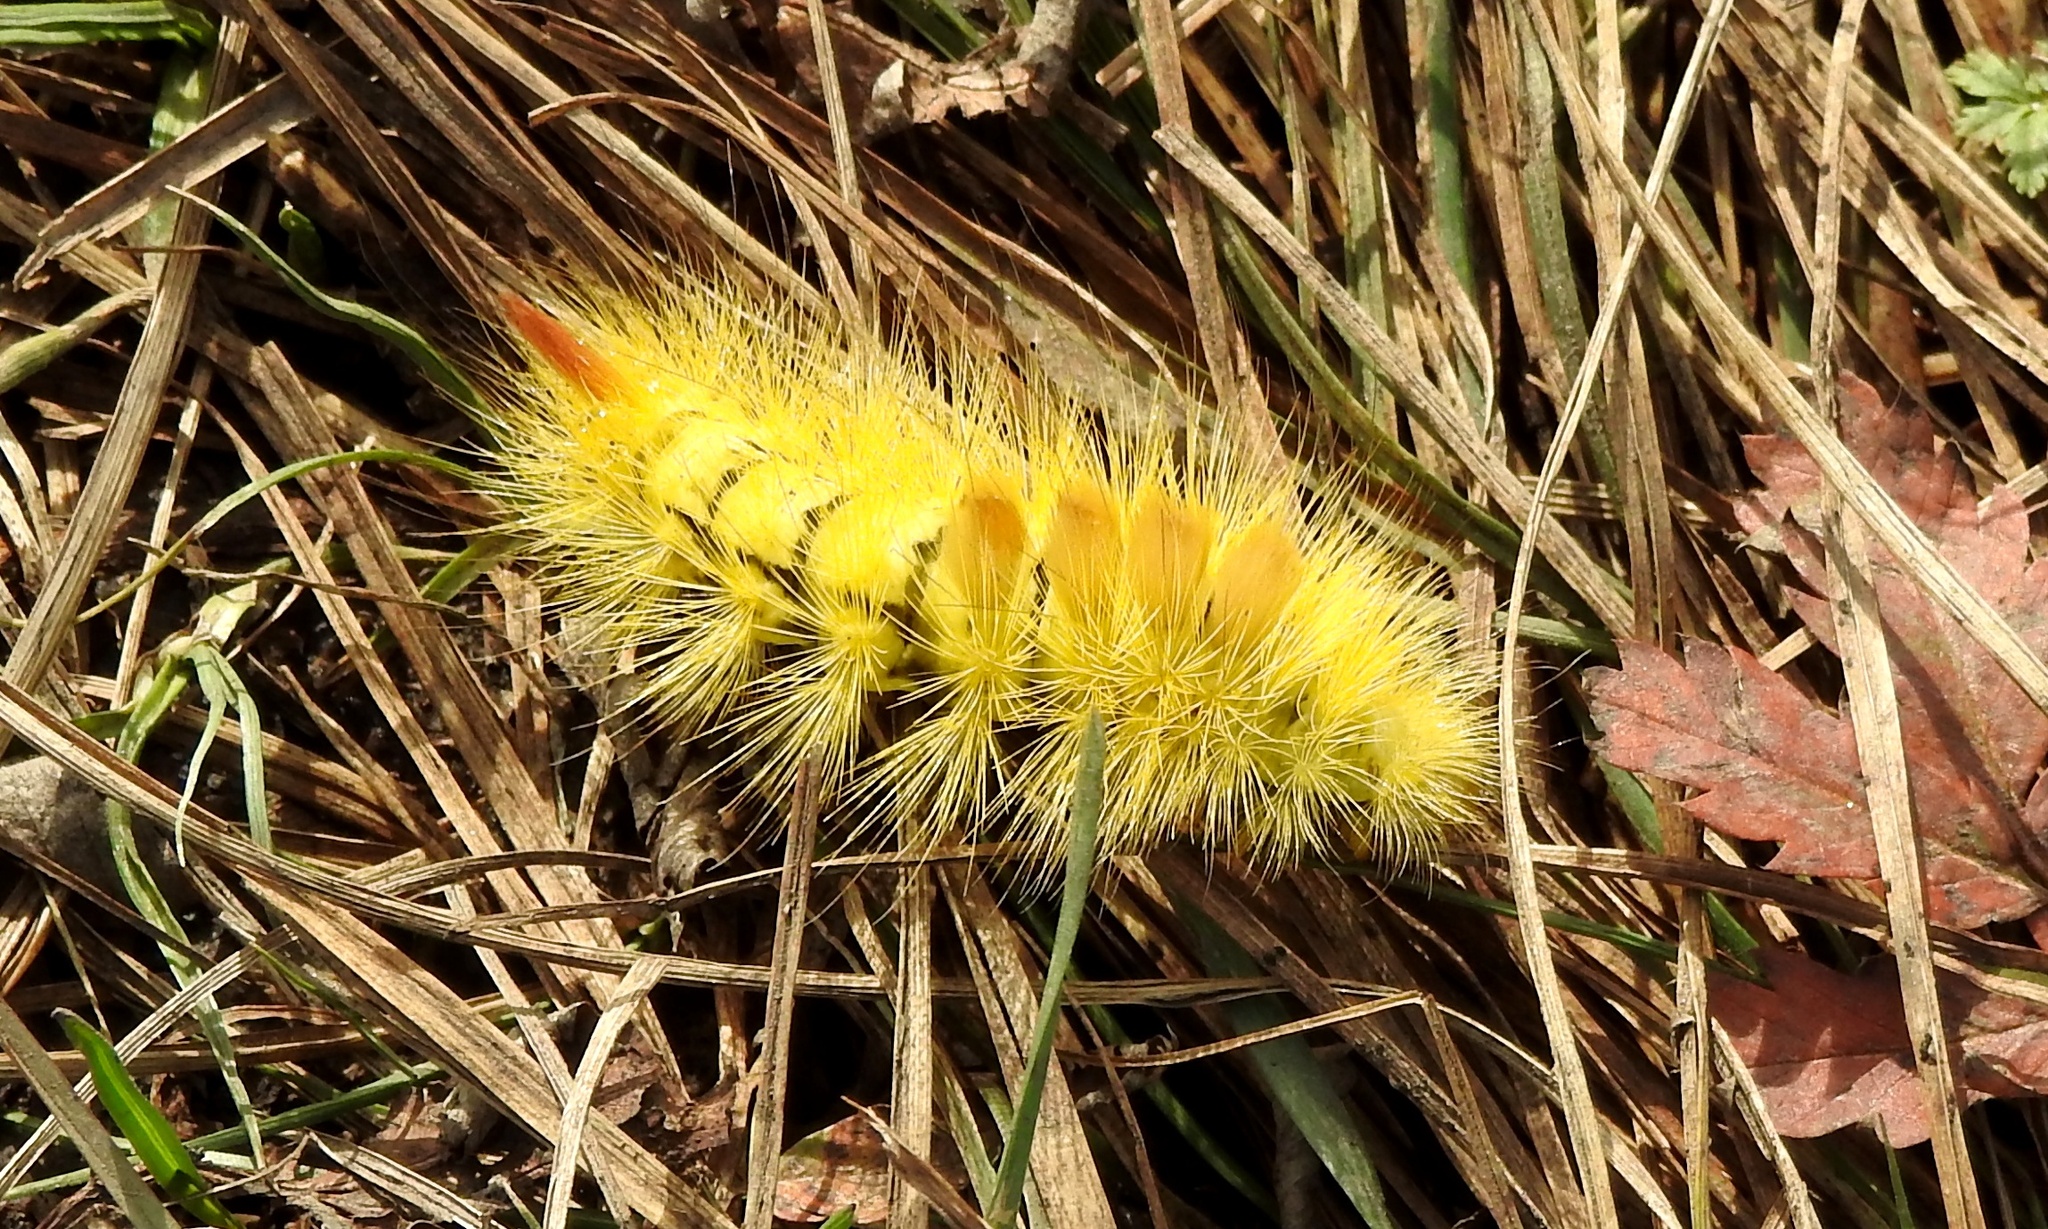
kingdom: Animalia
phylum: Arthropoda
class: Insecta
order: Lepidoptera
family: Erebidae
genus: Calliteara
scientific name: Calliteara pudibunda
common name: Pale tussock
